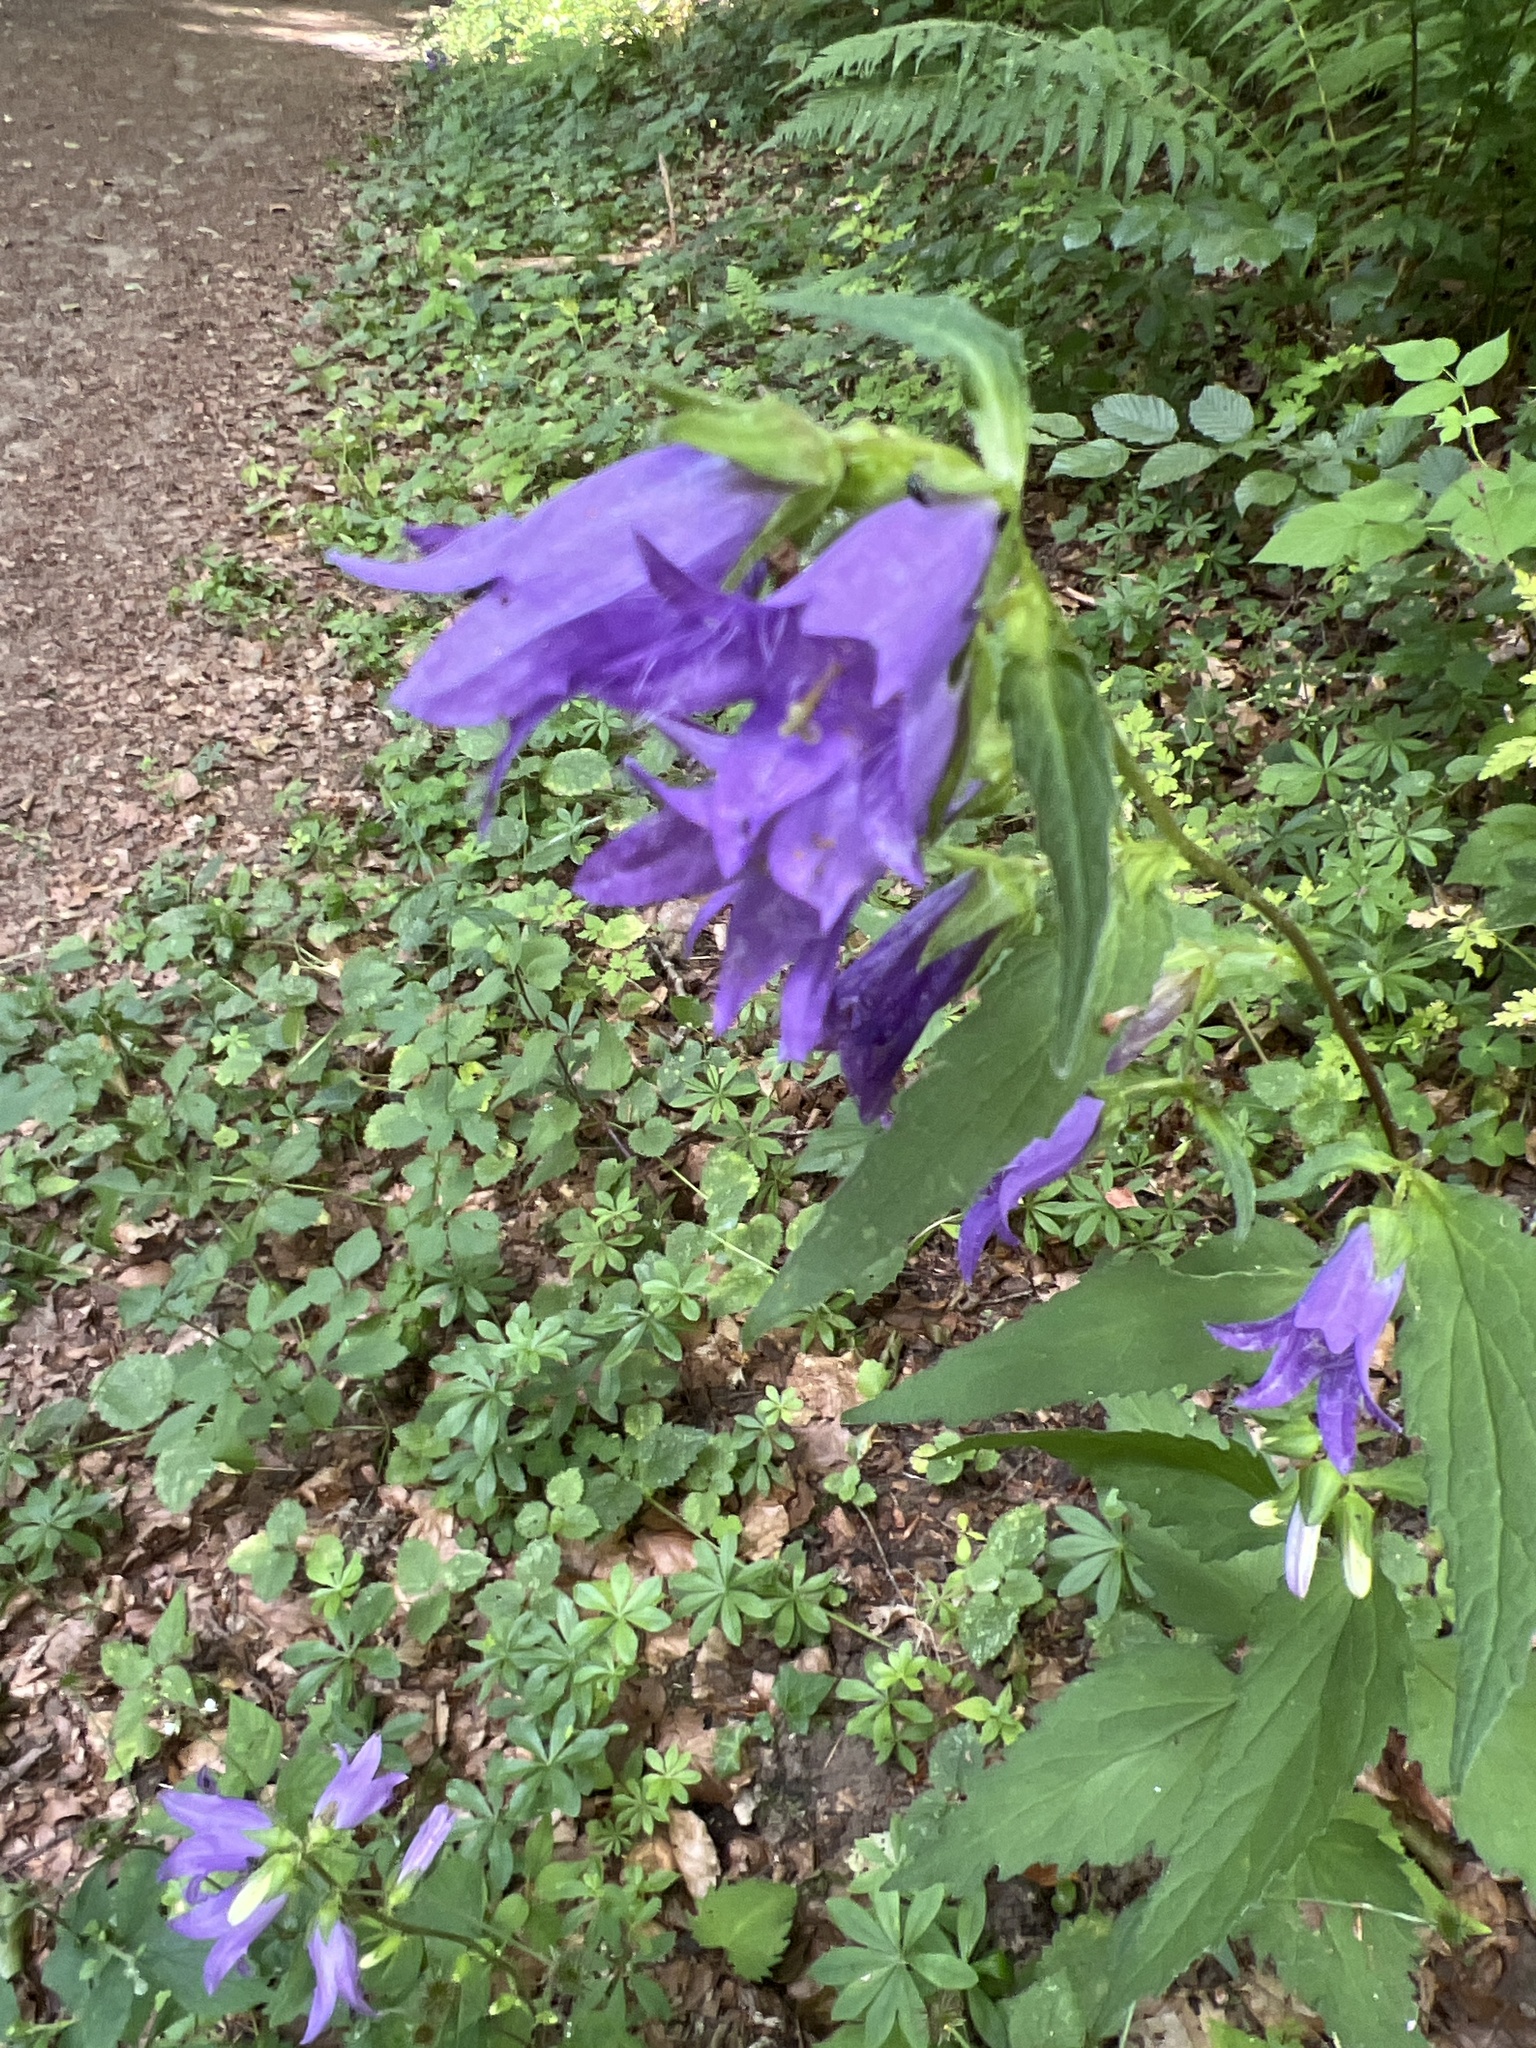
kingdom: Plantae
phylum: Tracheophyta
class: Magnoliopsida
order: Asterales
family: Campanulaceae
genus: Campanula
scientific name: Campanula trachelium
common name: Nettle-leaved bellflower
